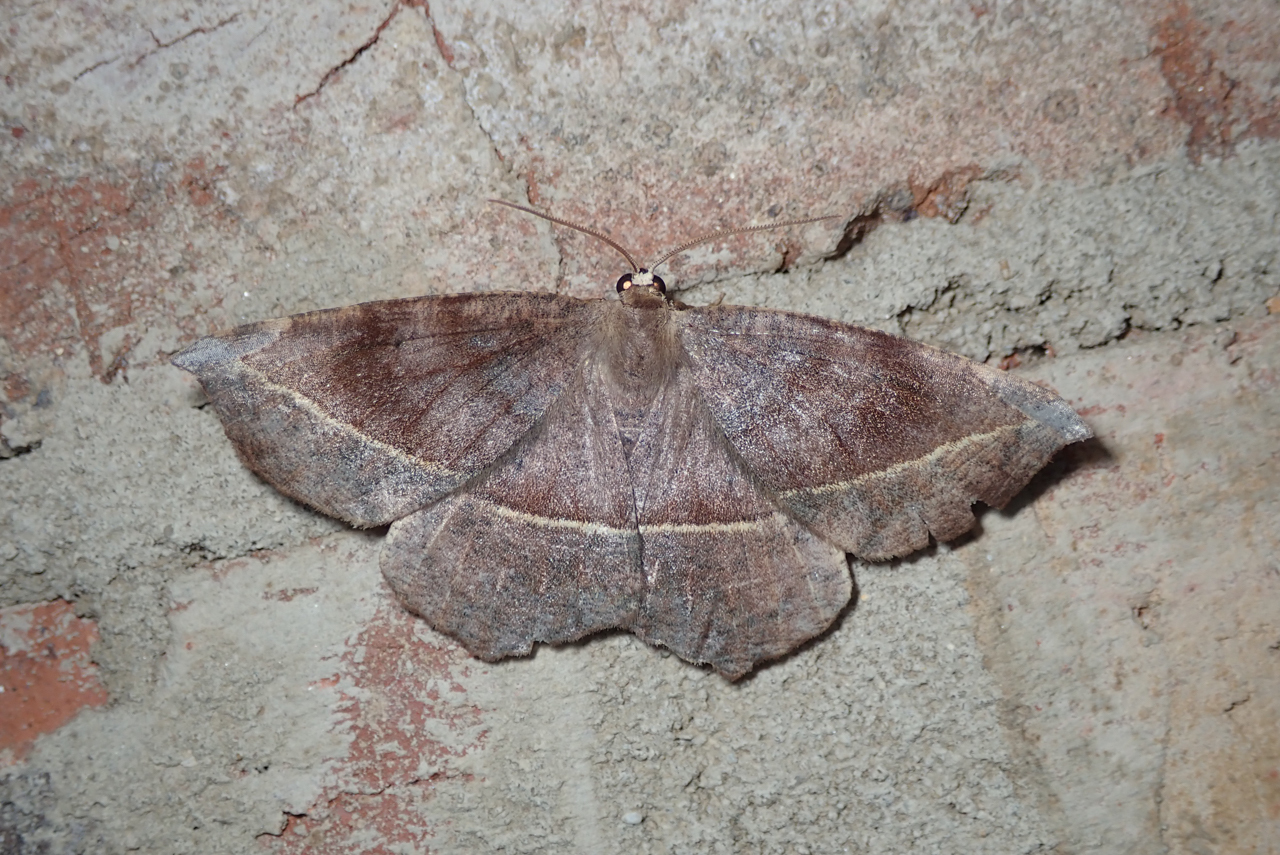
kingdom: Animalia
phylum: Arthropoda
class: Insecta
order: Lepidoptera
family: Geometridae
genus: Eutrapela
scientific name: Eutrapela clemataria
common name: Curved-toothed geometer
